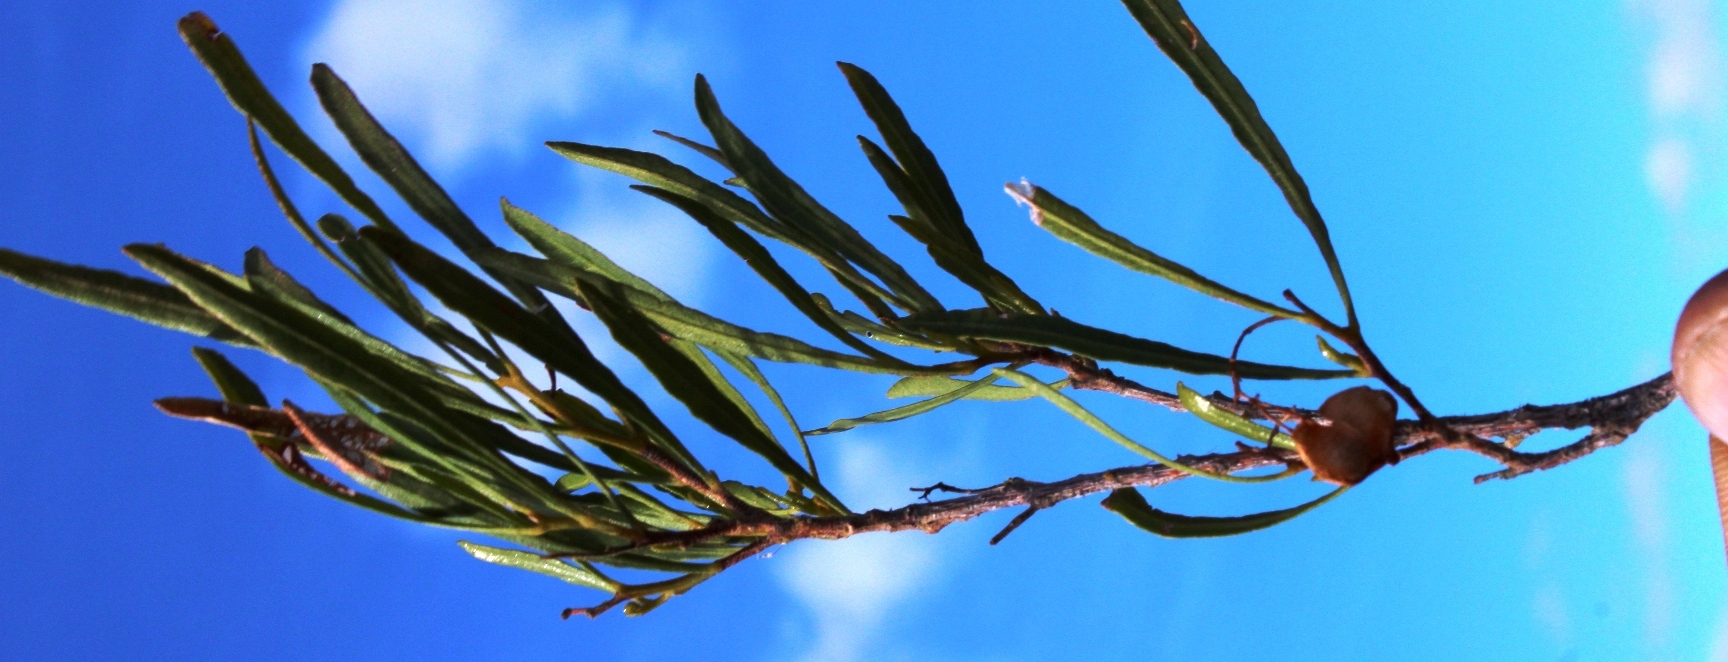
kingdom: Plantae
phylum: Tracheophyta
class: Magnoliopsida
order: Sapindales
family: Sapindaceae
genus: Dodonaea
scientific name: Dodonaea viscosa
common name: Hopbush
